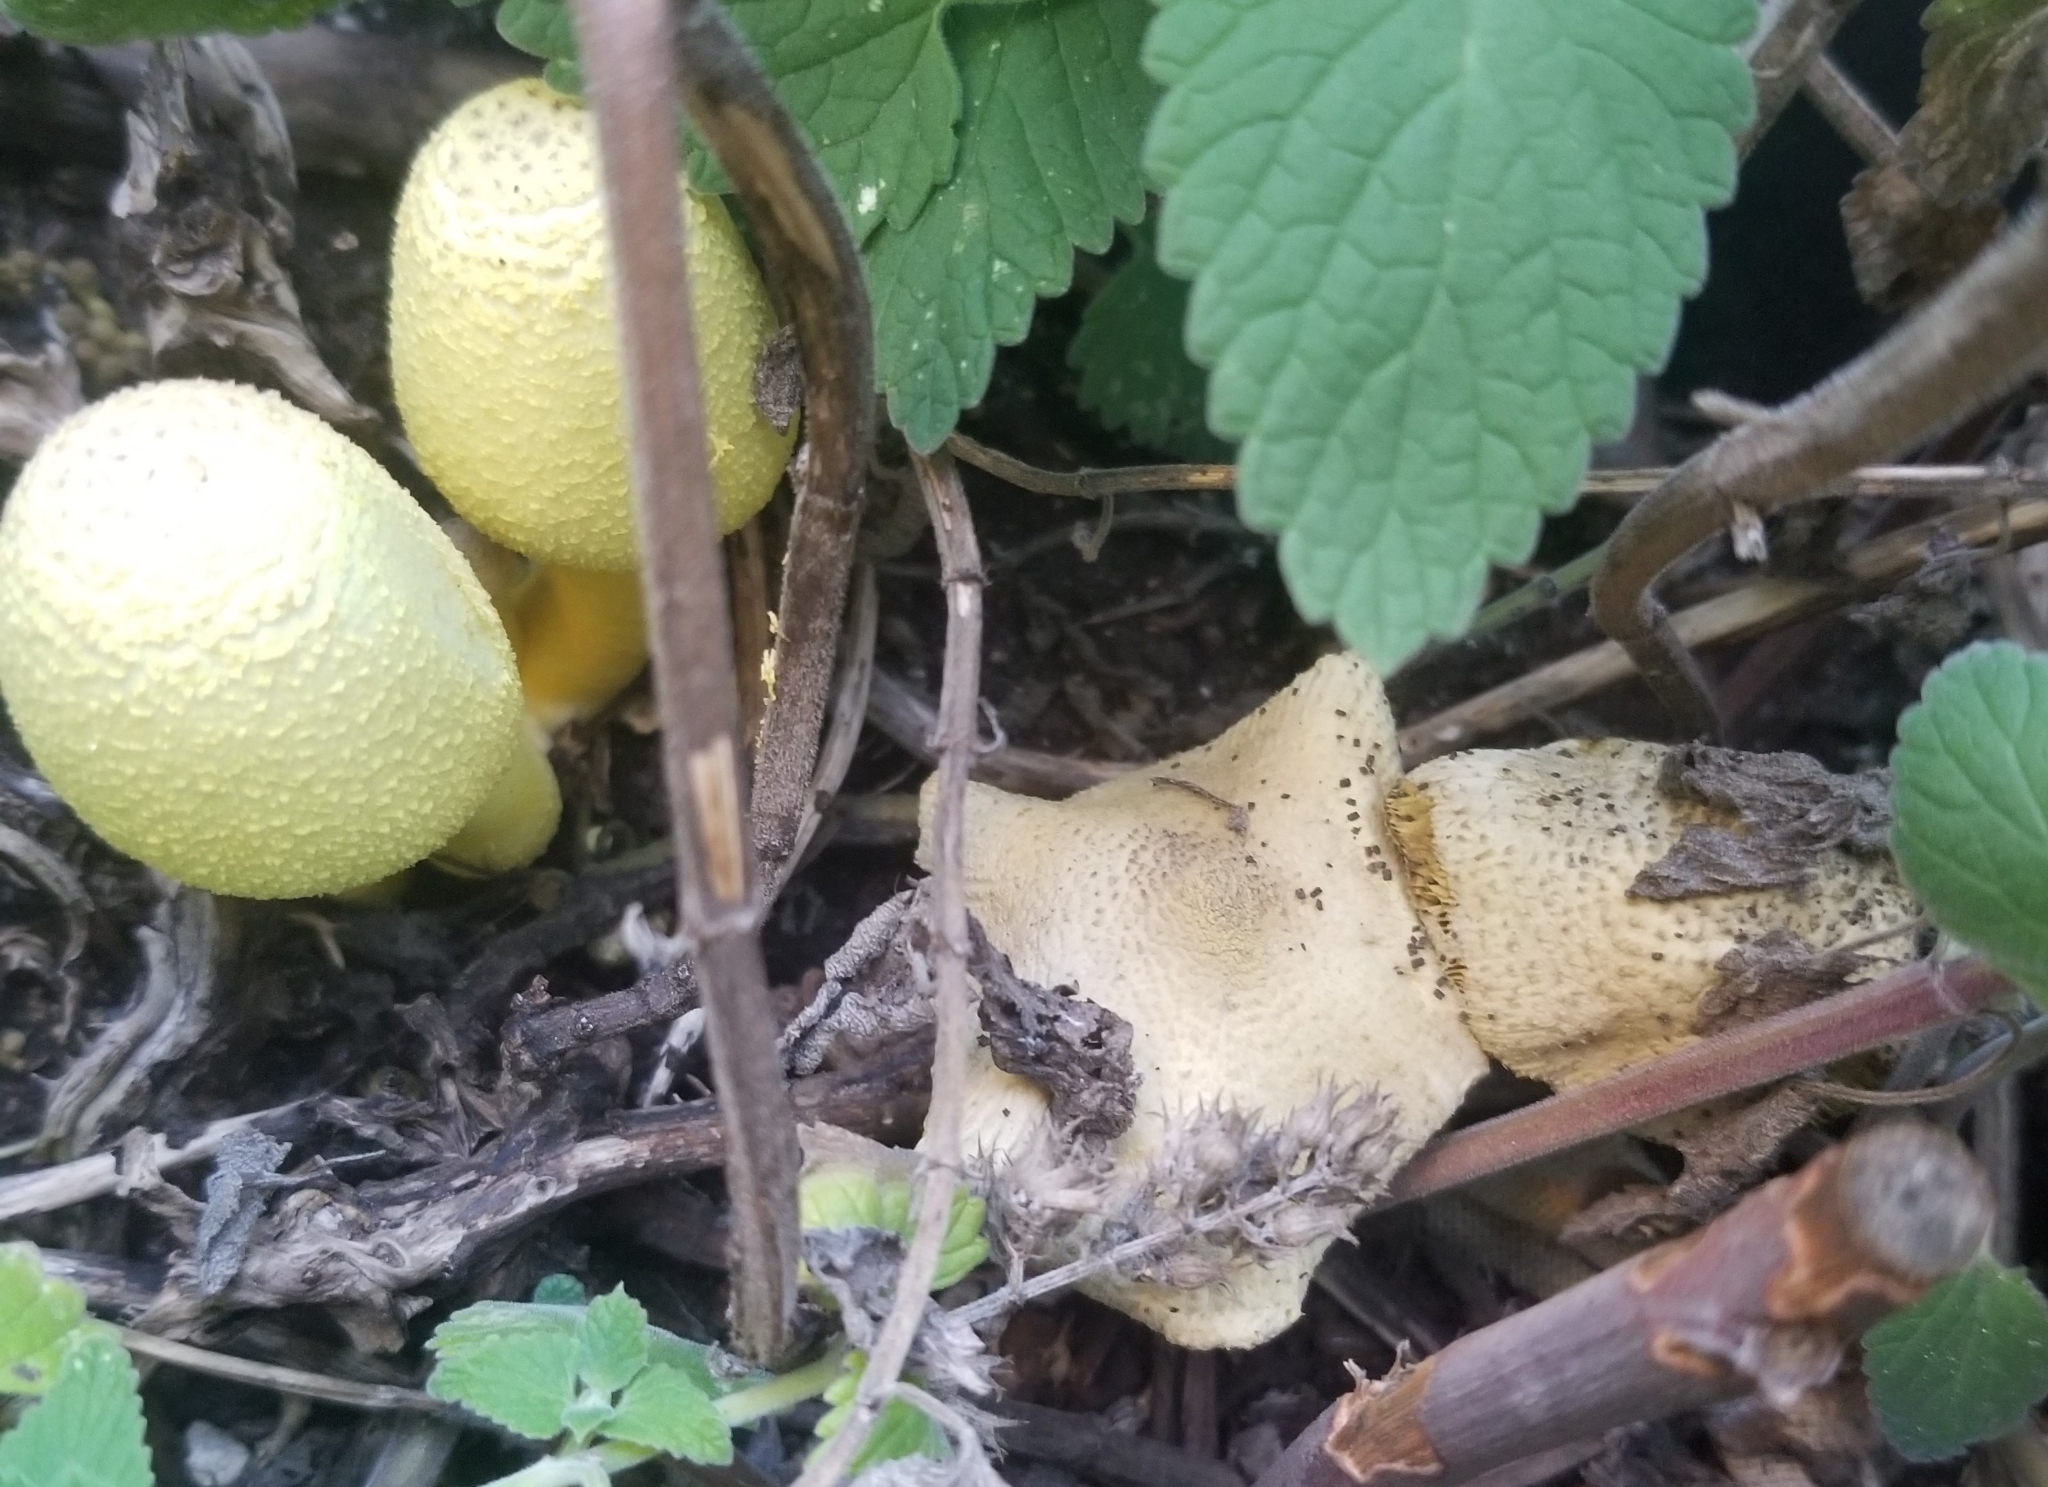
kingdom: Fungi
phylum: Basidiomycota
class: Agaricomycetes
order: Agaricales
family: Agaricaceae
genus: Leucocoprinus
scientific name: Leucocoprinus birnbaumii
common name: Plantpot dapperling
